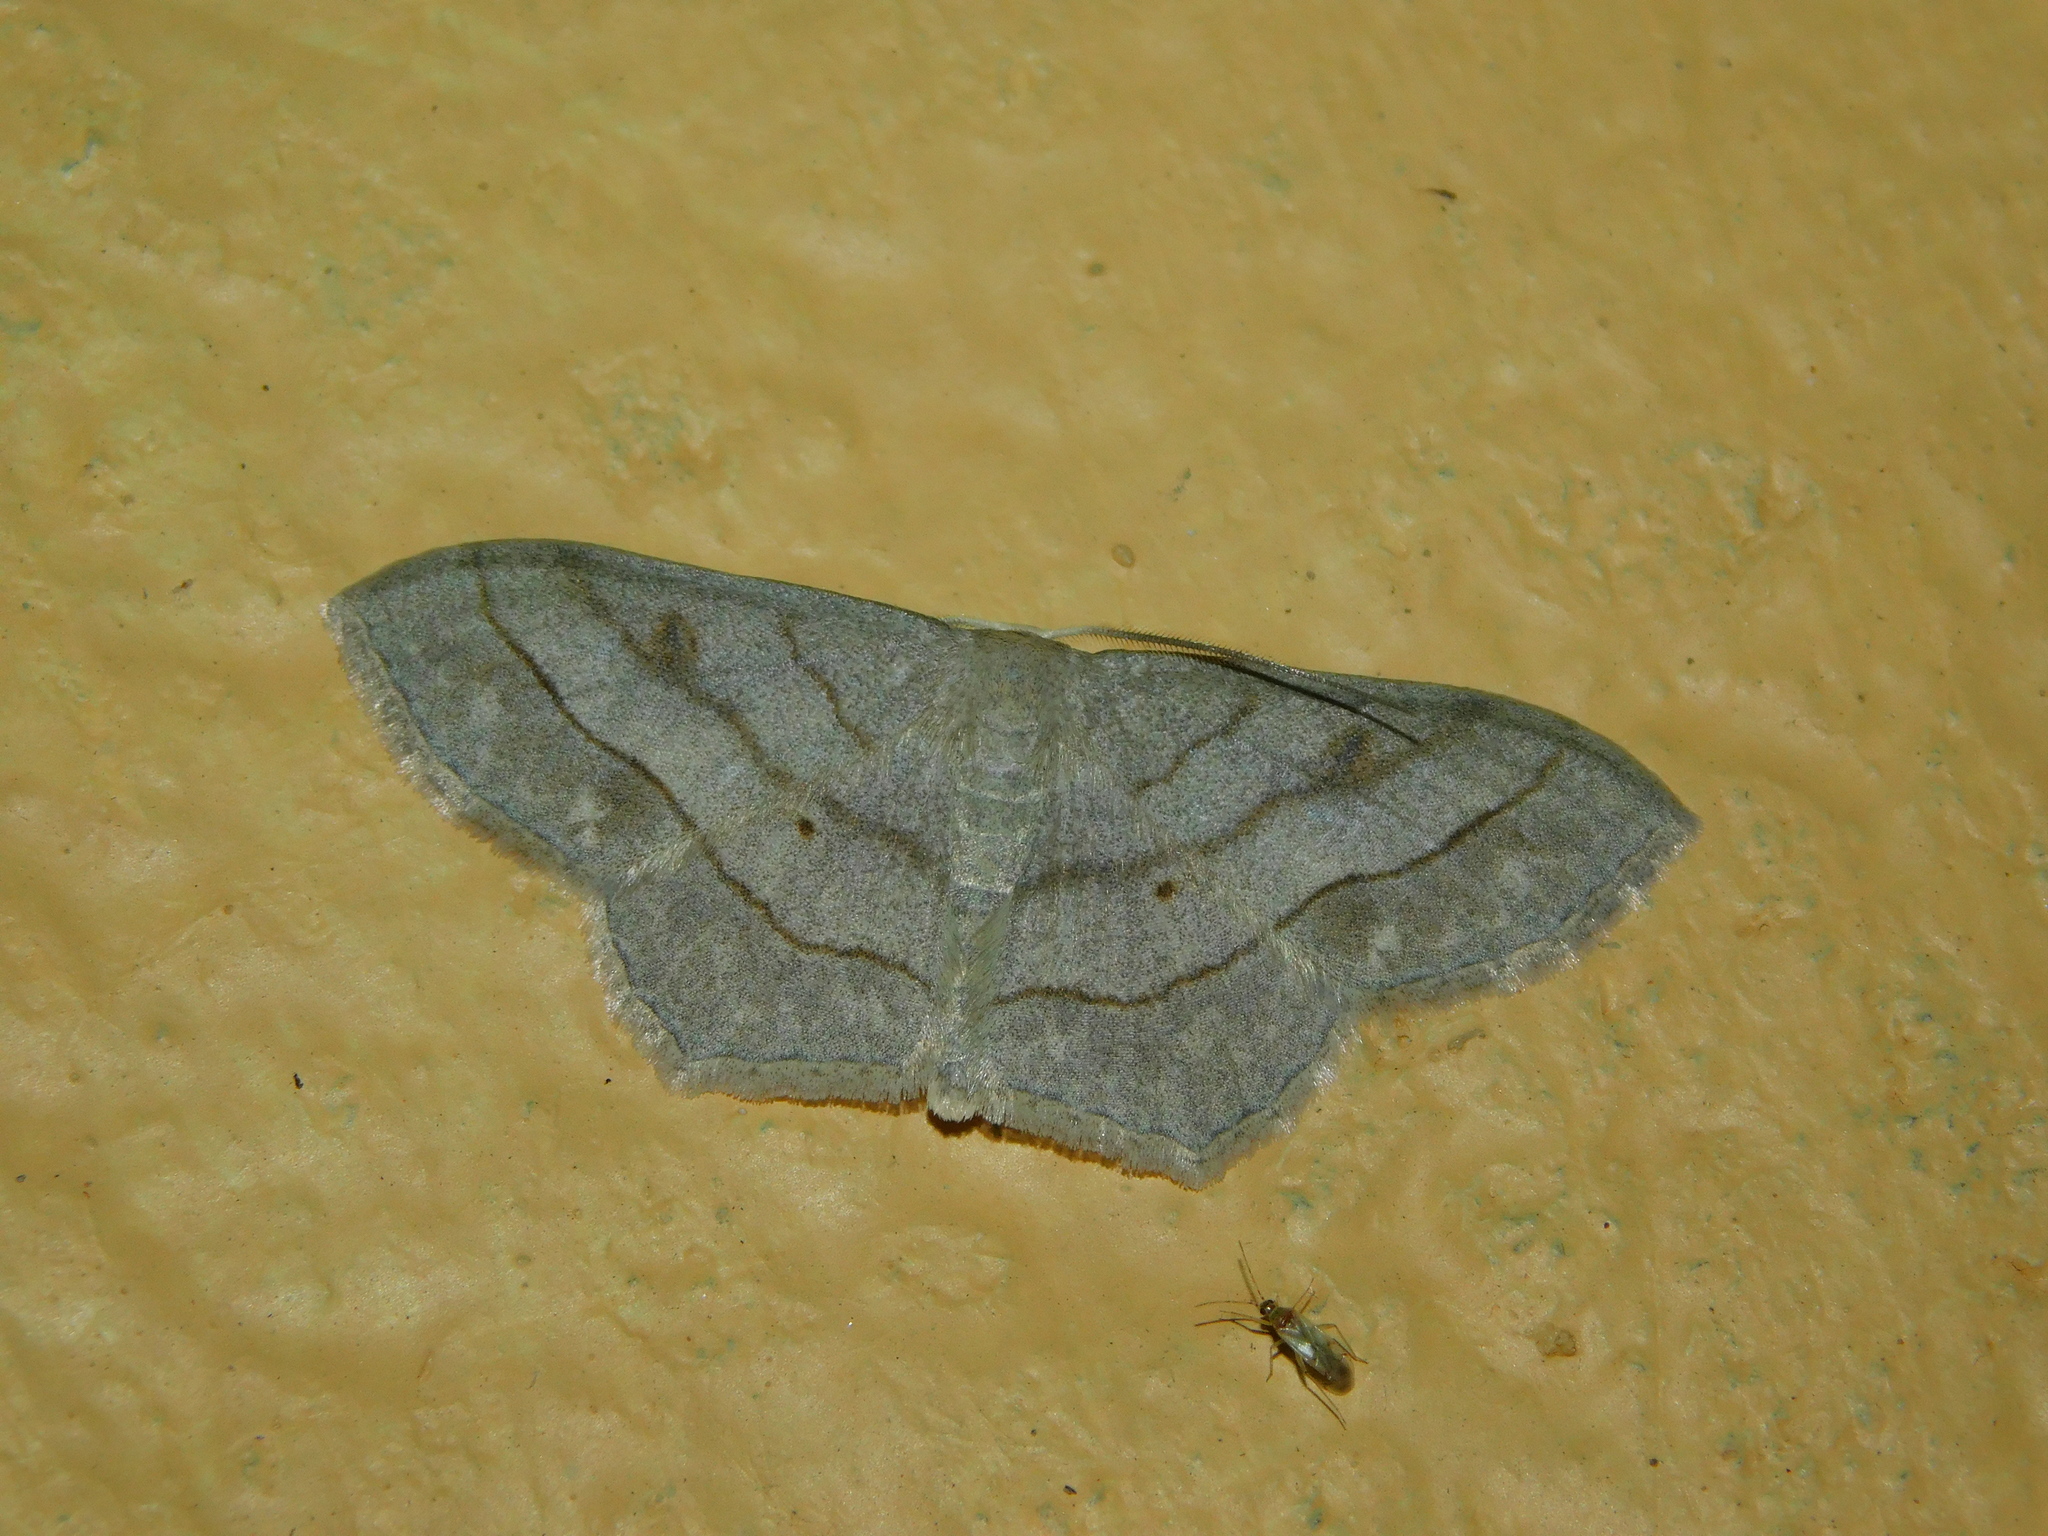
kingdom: Animalia
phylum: Arthropoda
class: Insecta
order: Lepidoptera
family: Geometridae
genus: Scopula
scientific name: Scopula modesta
